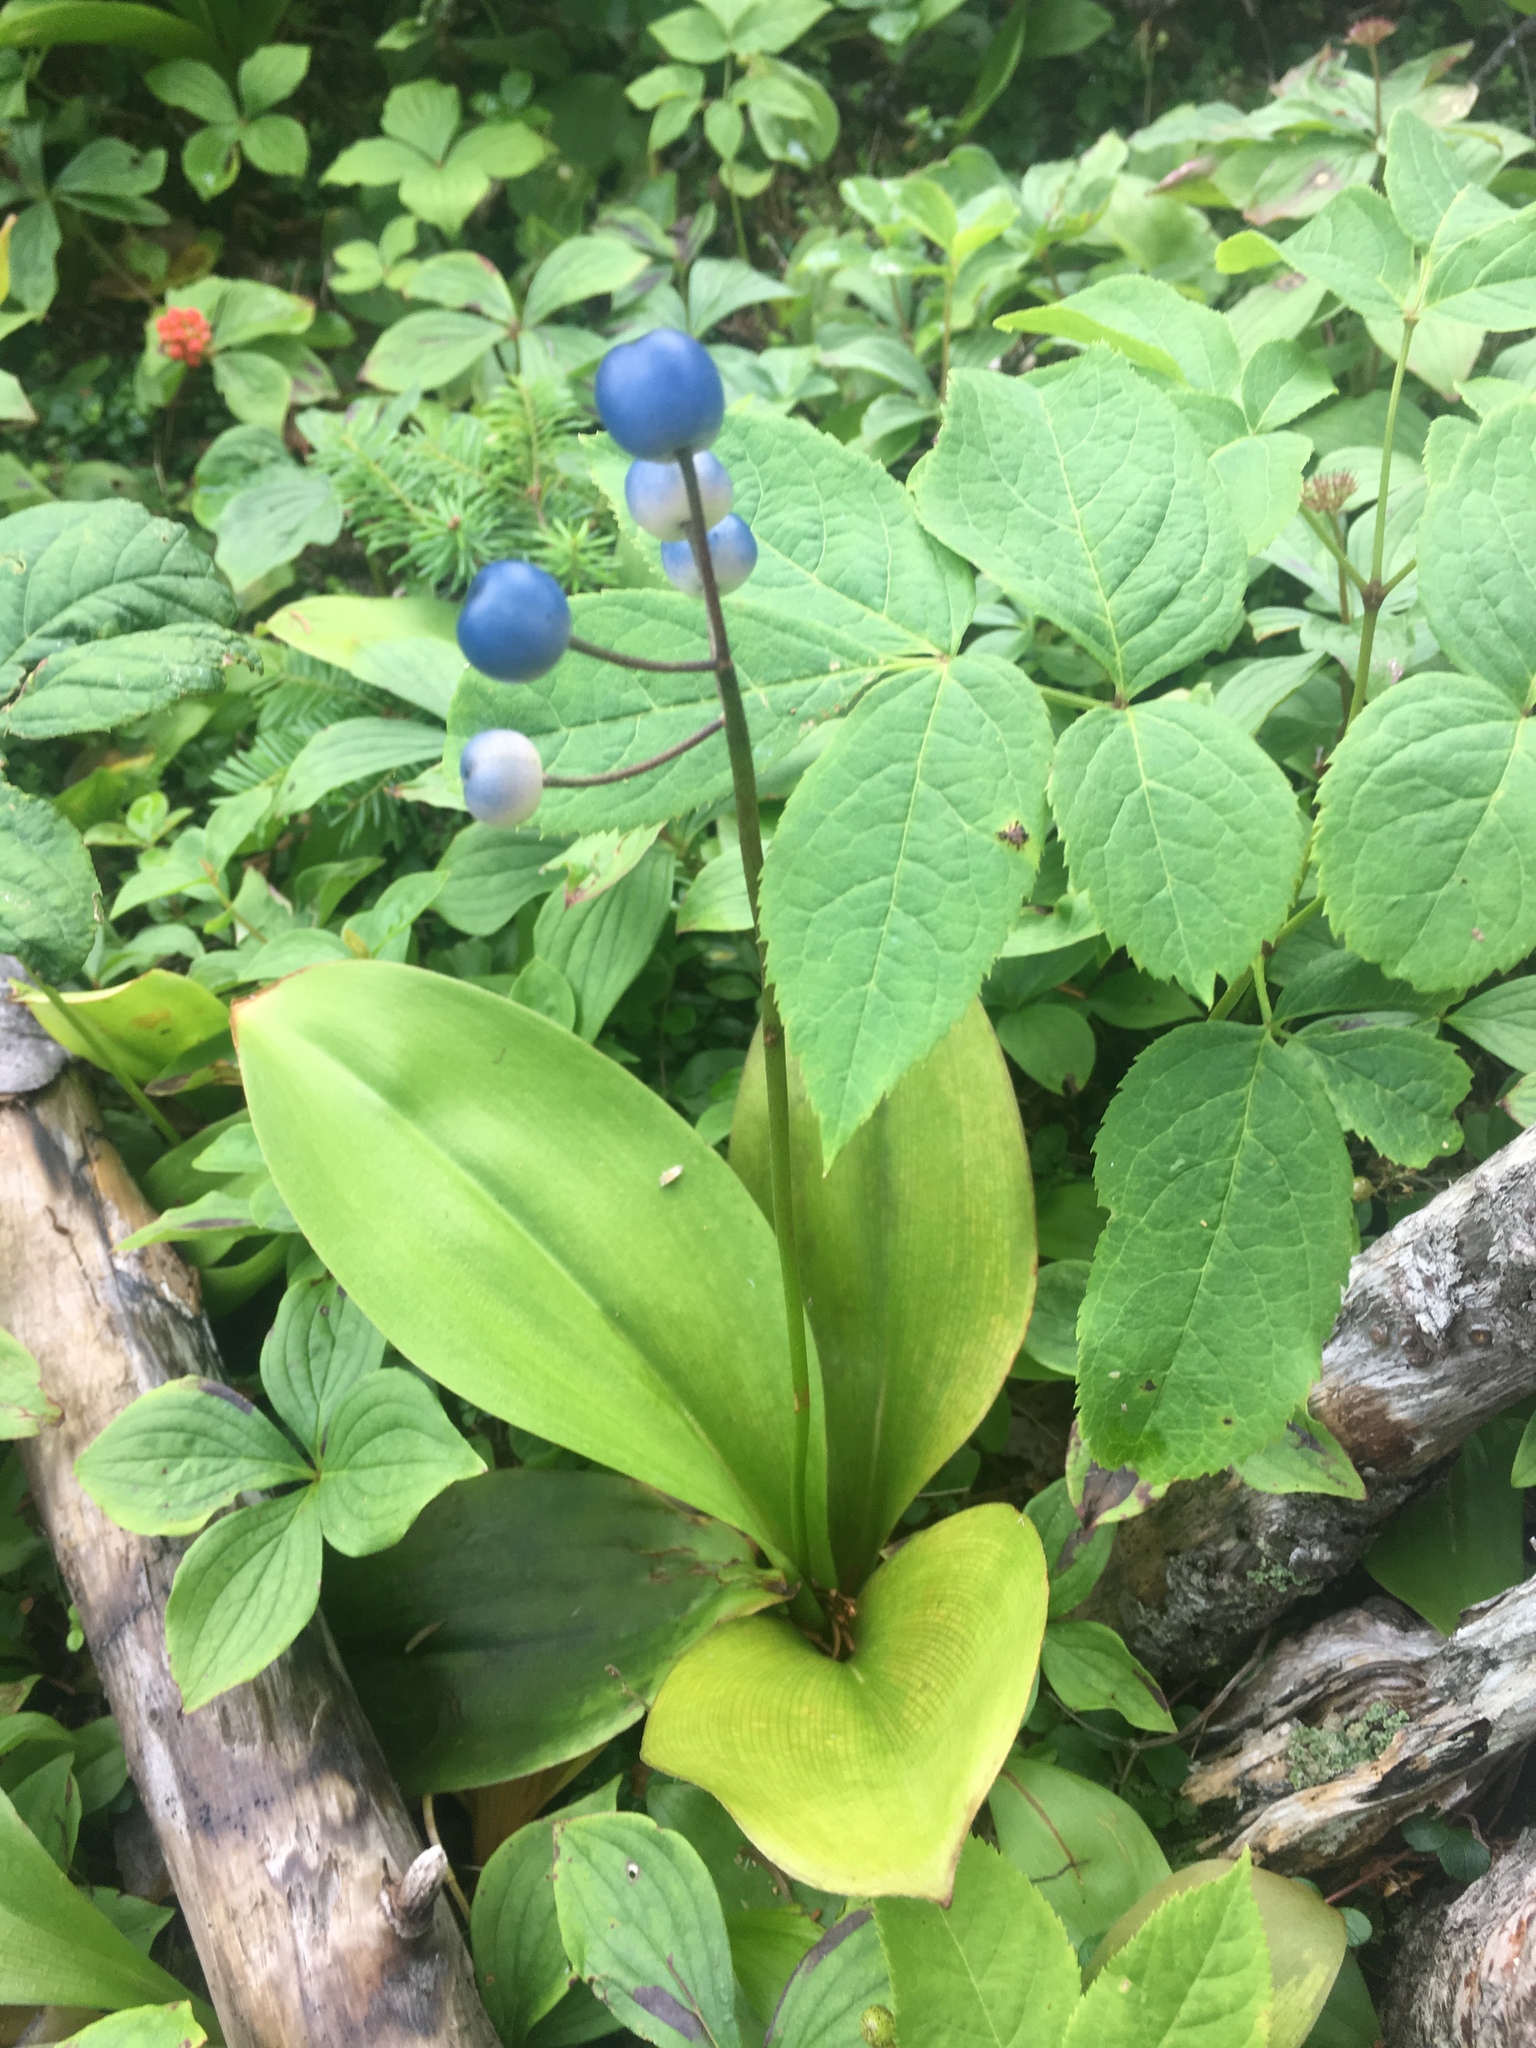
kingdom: Plantae
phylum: Tracheophyta
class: Liliopsida
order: Liliales
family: Liliaceae
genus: Clintonia
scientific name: Clintonia borealis
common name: Yellow clintonia
